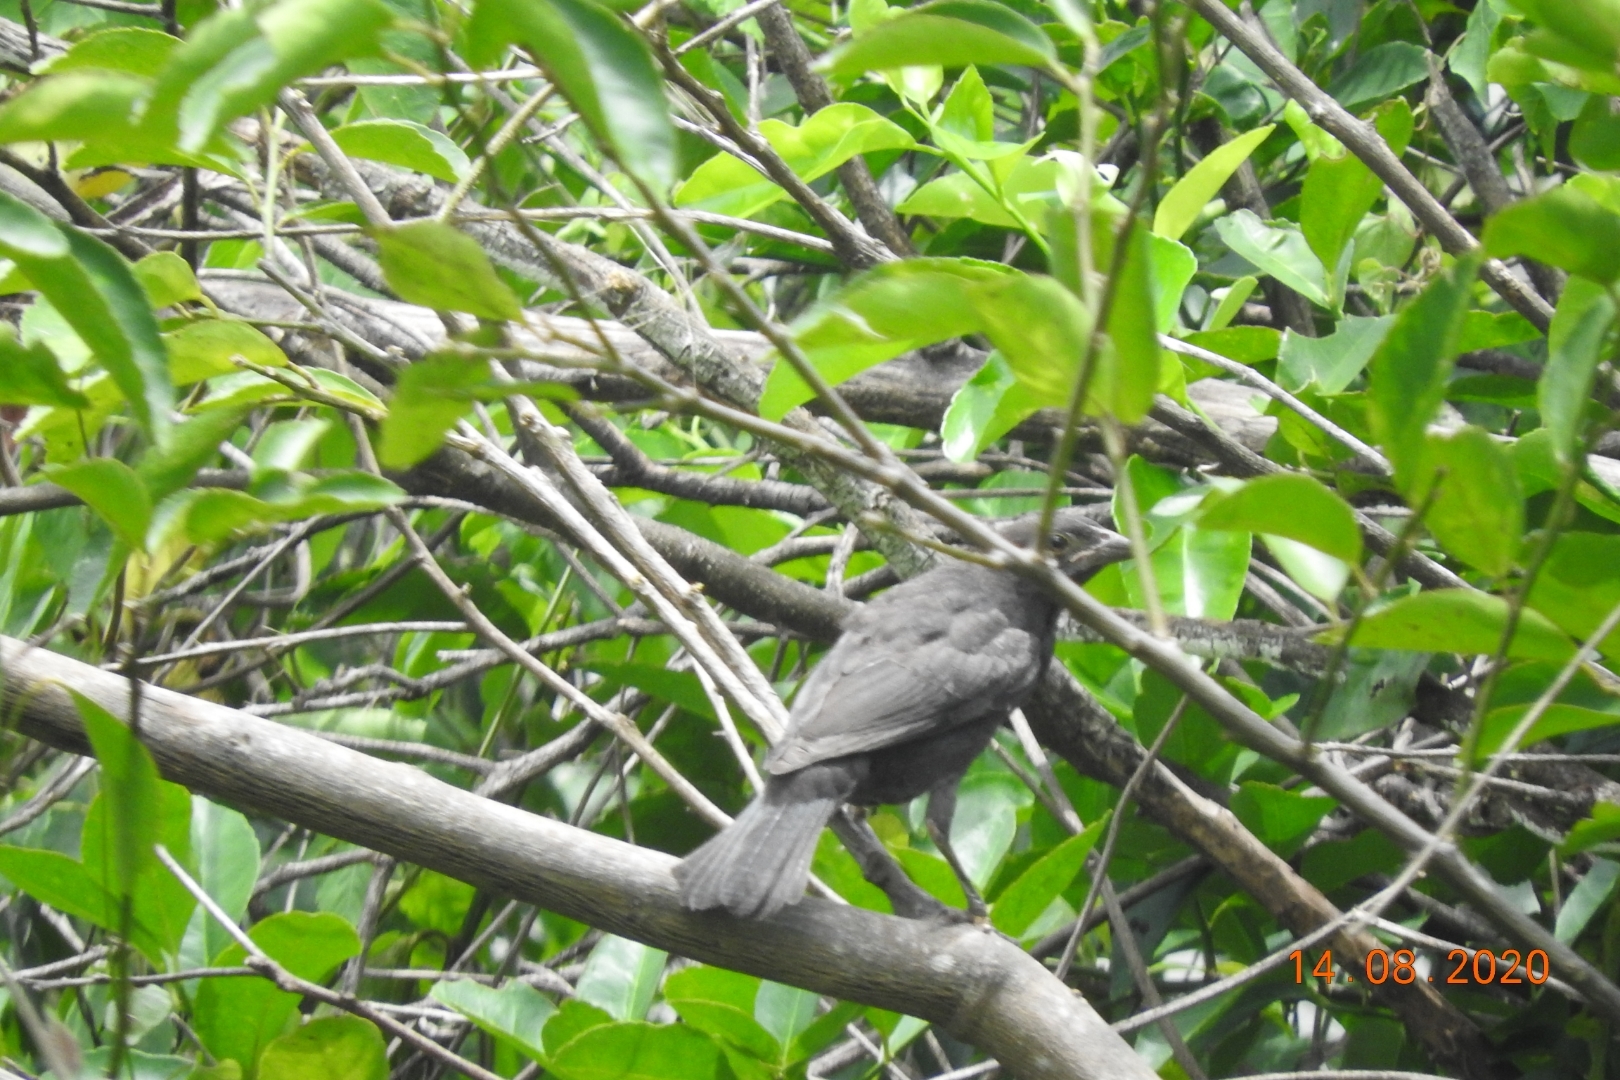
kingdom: Animalia
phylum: Chordata
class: Aves
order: Passeriformes
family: Icteridae
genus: Dives
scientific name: Dives dives
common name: Melodious blackbird
